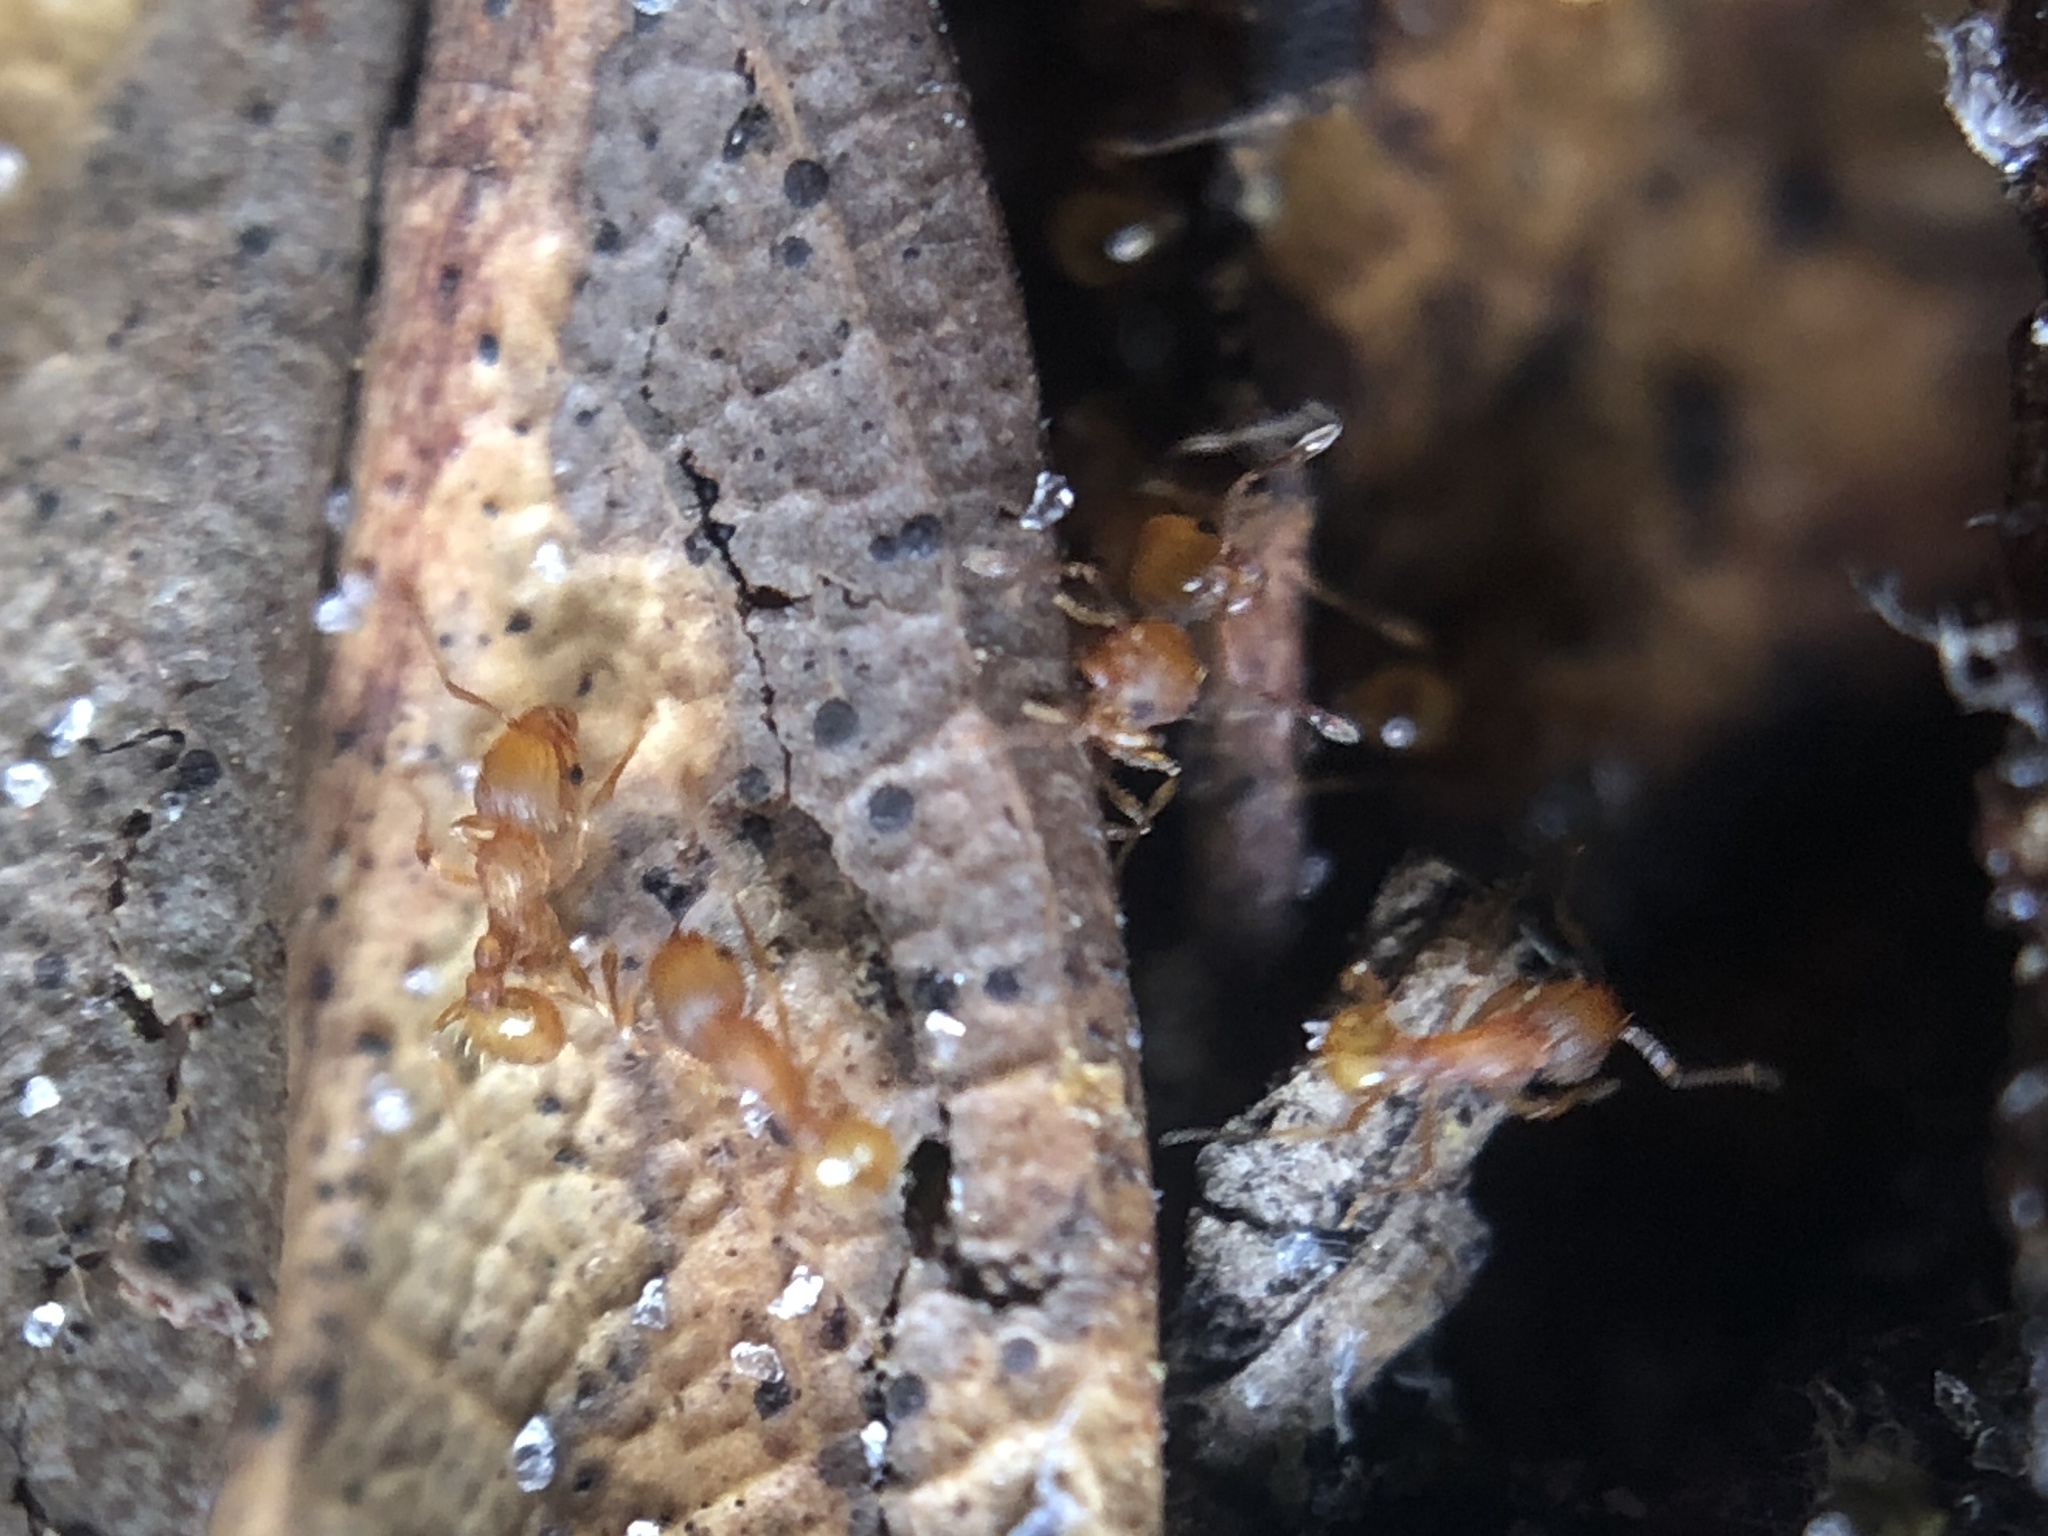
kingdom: Animalia
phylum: Arthropoda
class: Insecta
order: Hymenoptera
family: Formicidae
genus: Wasmannia
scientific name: Wasmannia auropunctata
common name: Little fire ant
